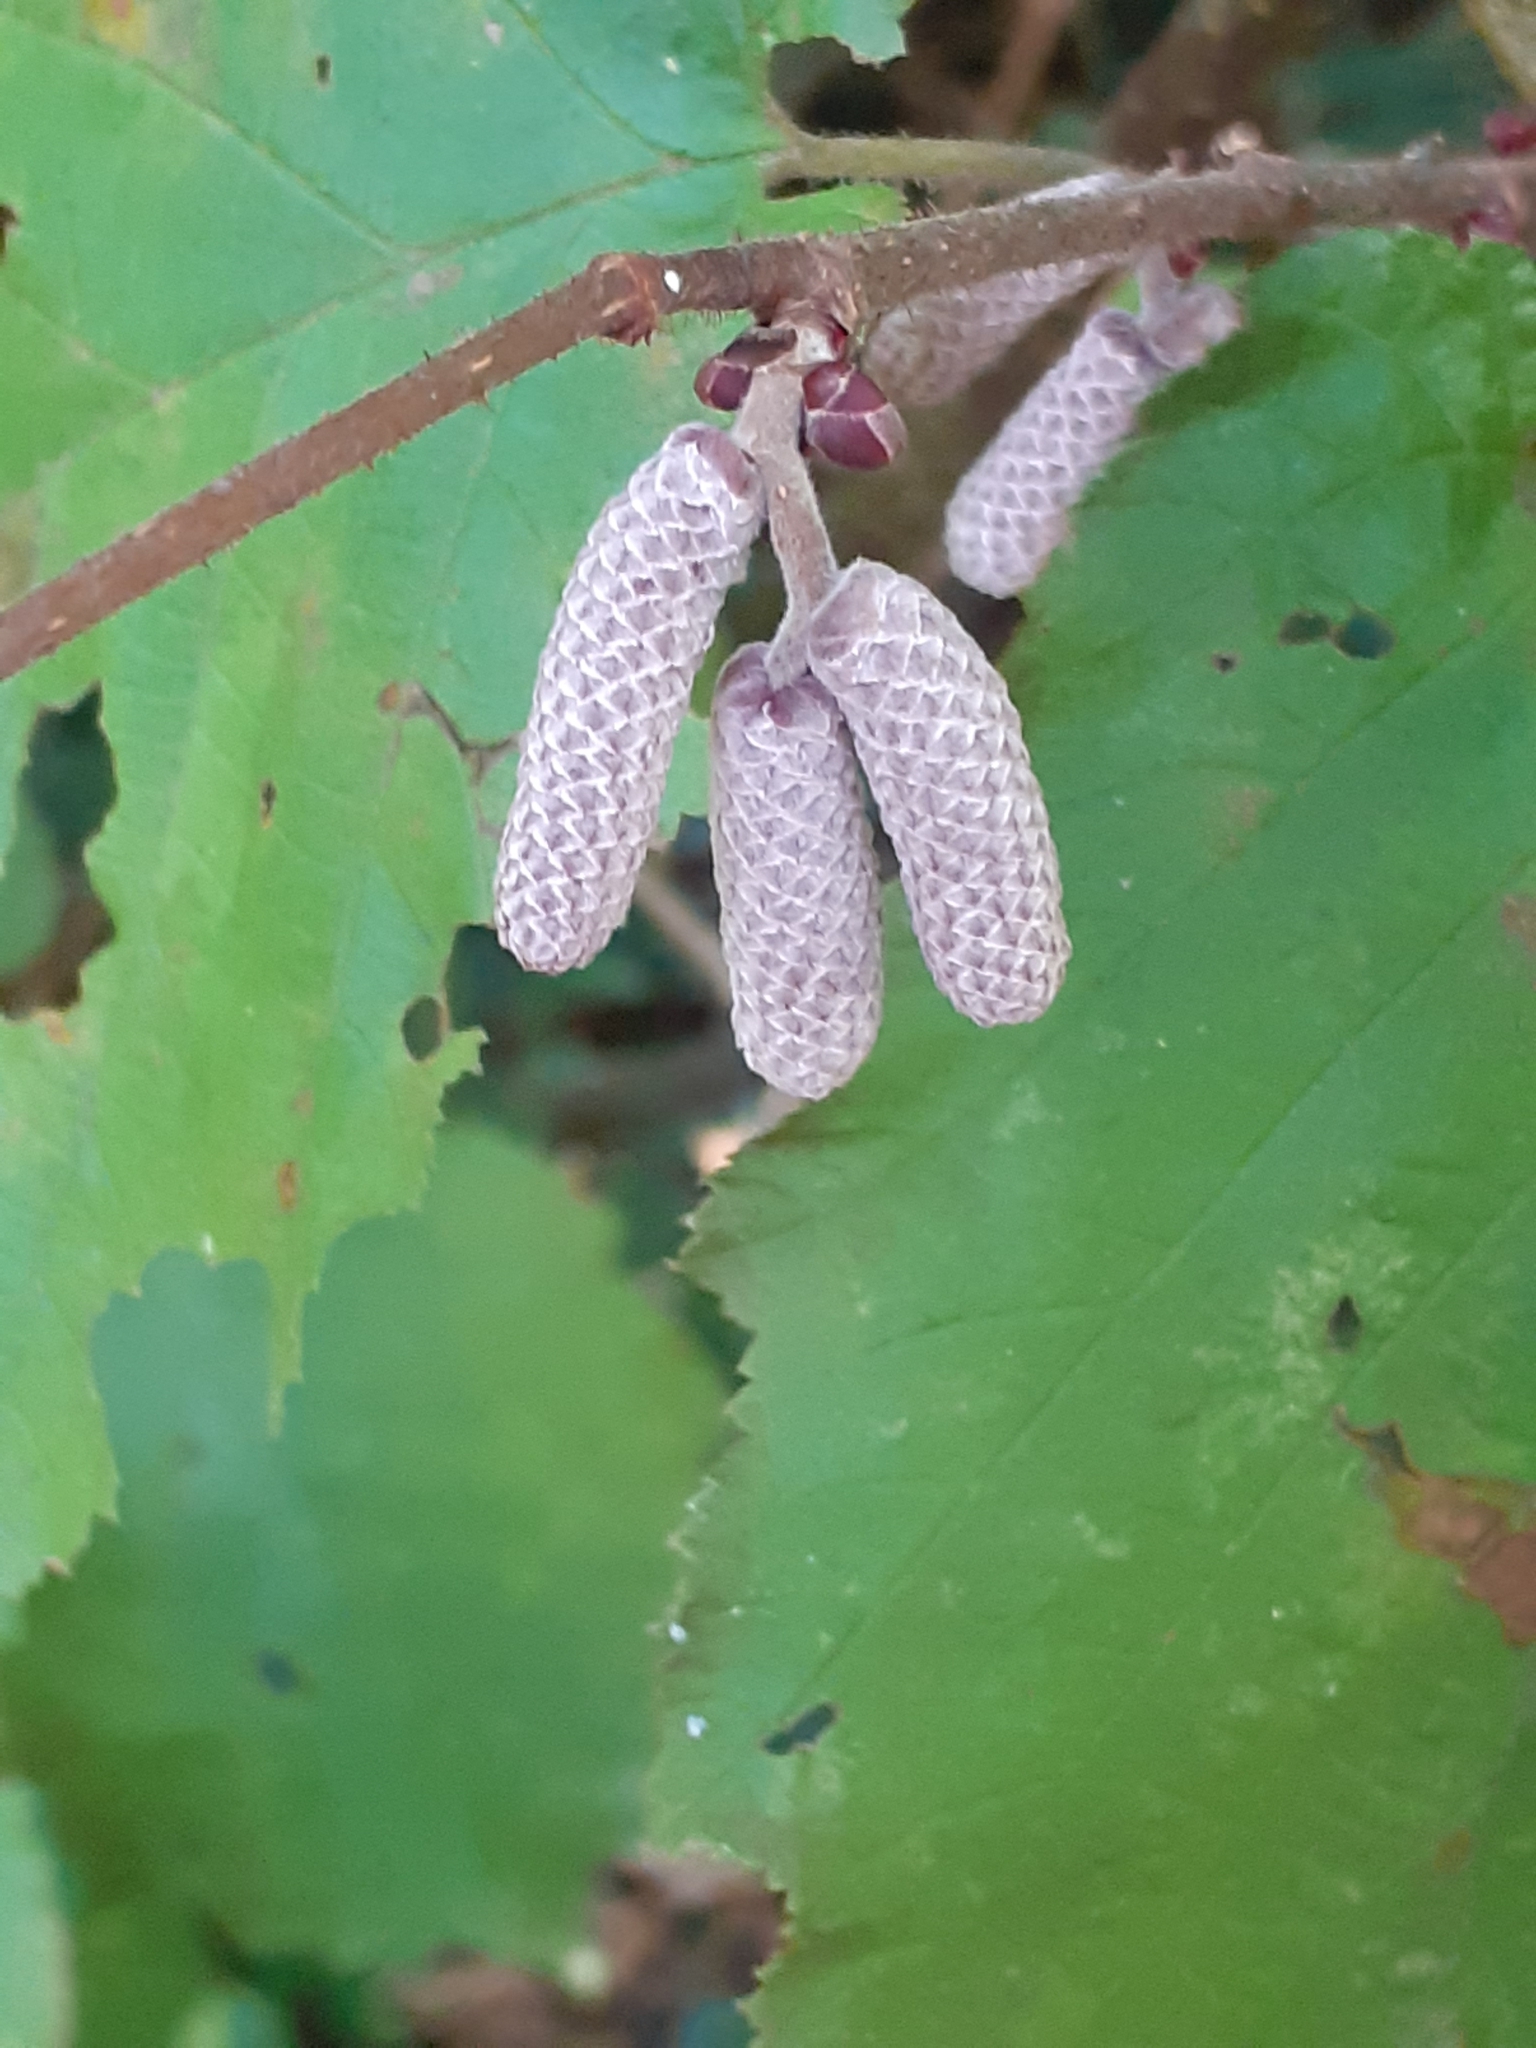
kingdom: Plantae
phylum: Tracheophyta
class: Magnoliopsida
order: Fagales
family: Betulaceae
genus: Corylus
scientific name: Corylus avellana
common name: European hazel
